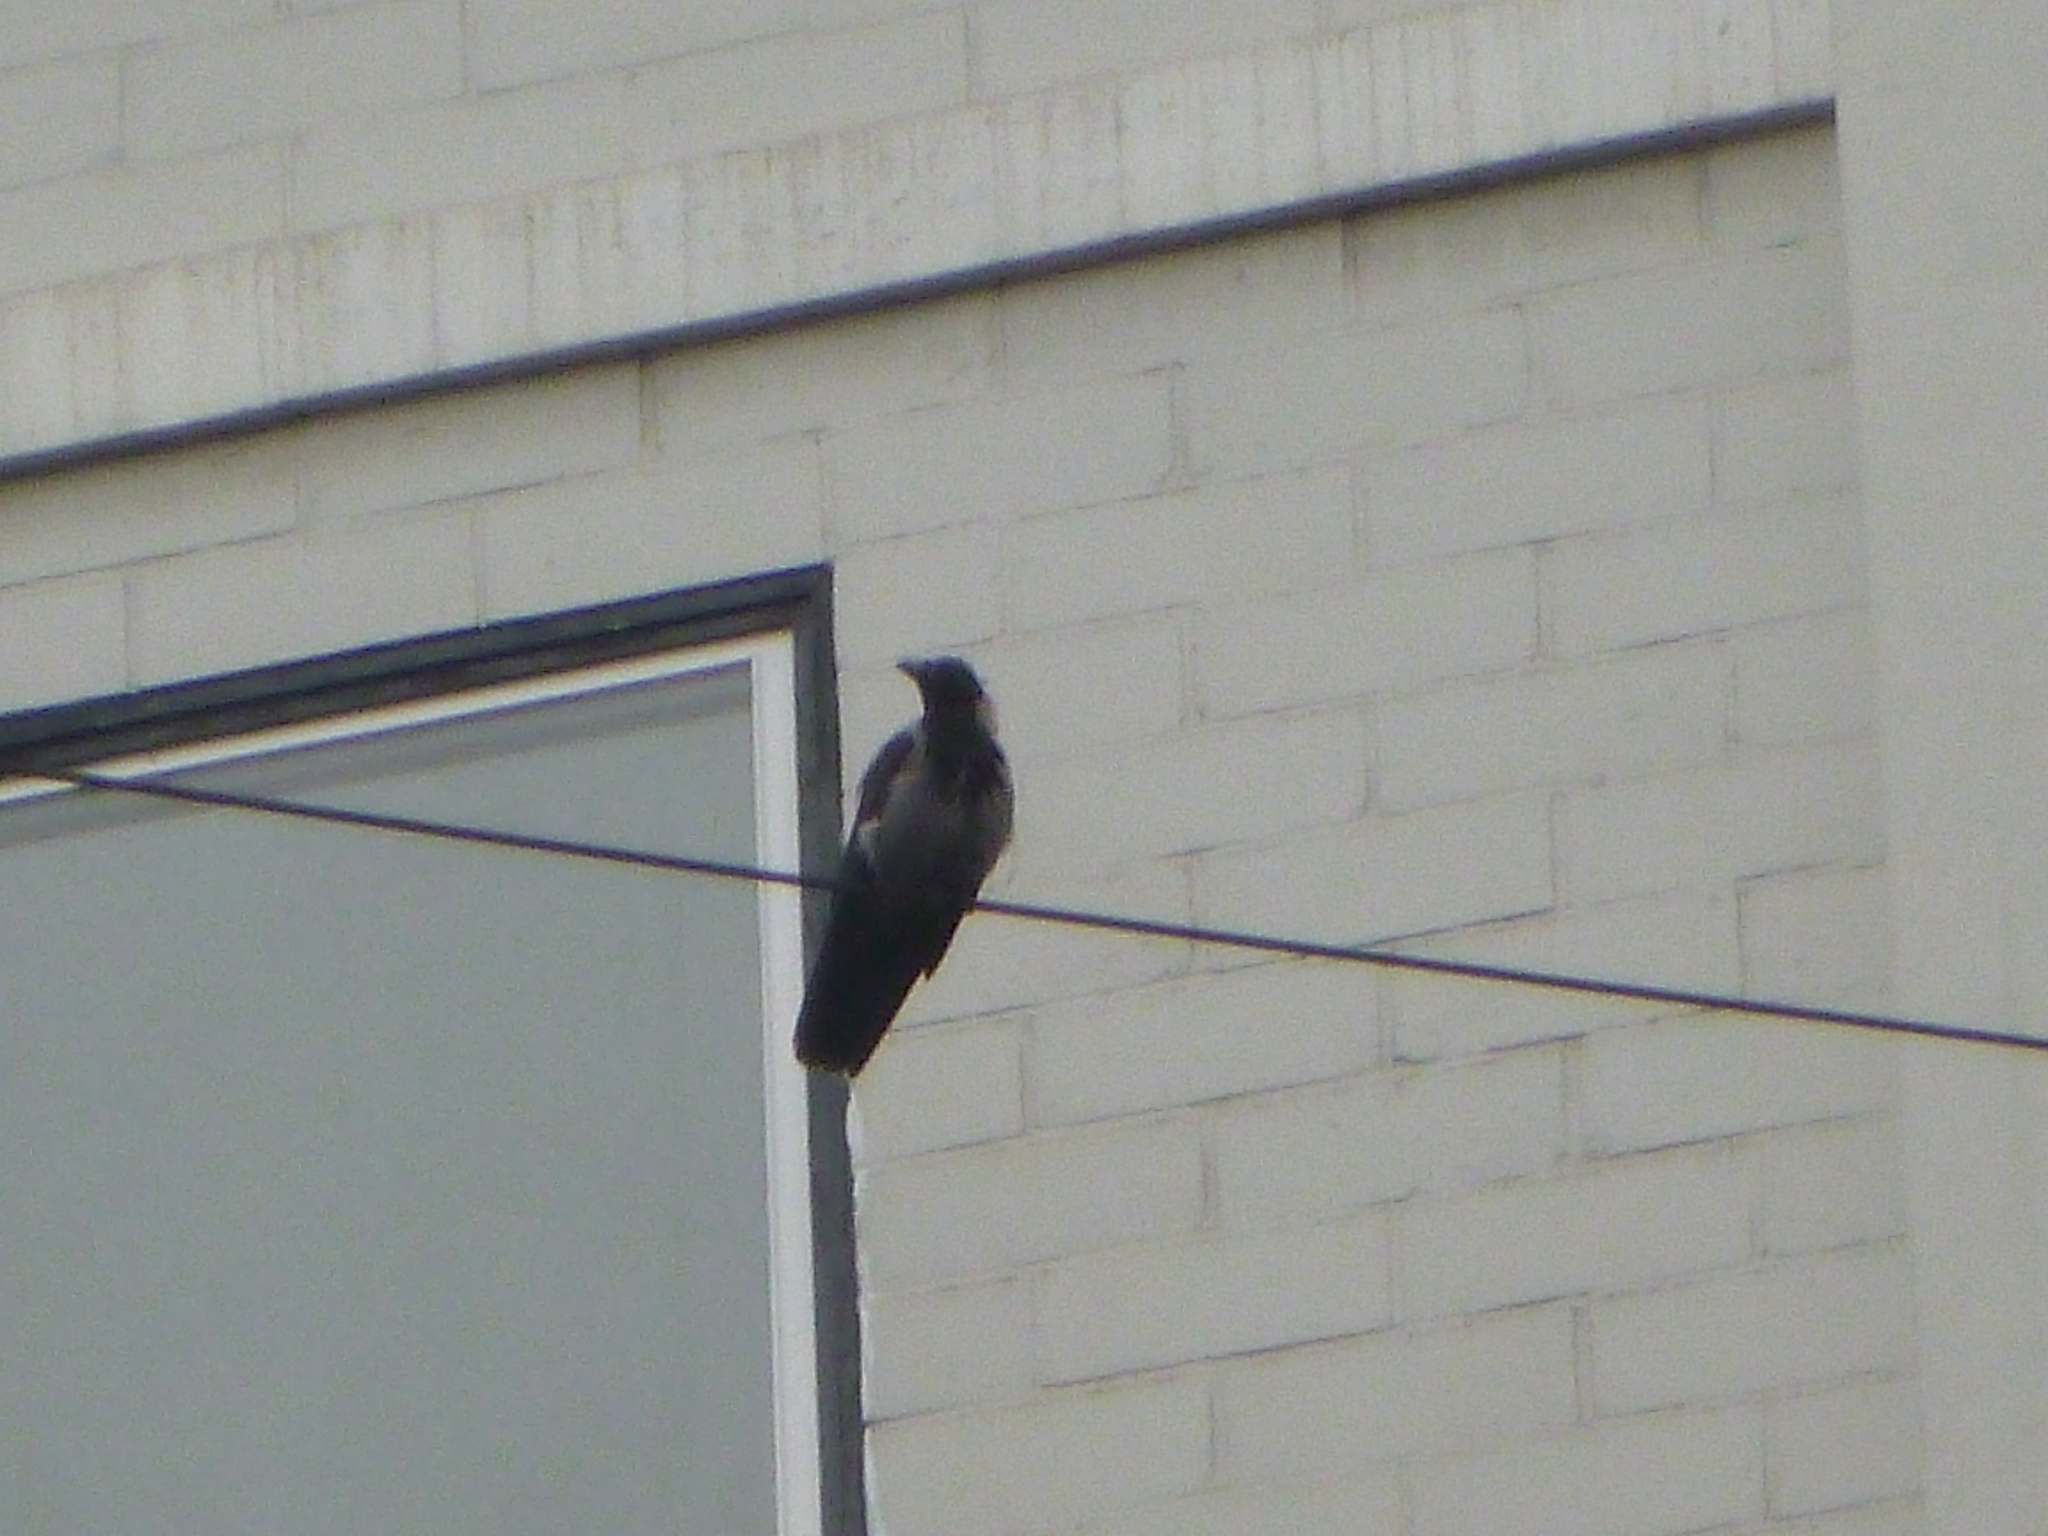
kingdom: Animalia
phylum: Chordata
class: Aves
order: Passeriformes
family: Corvidae
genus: Corvus
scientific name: Corvus cornix
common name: Hooded crow
